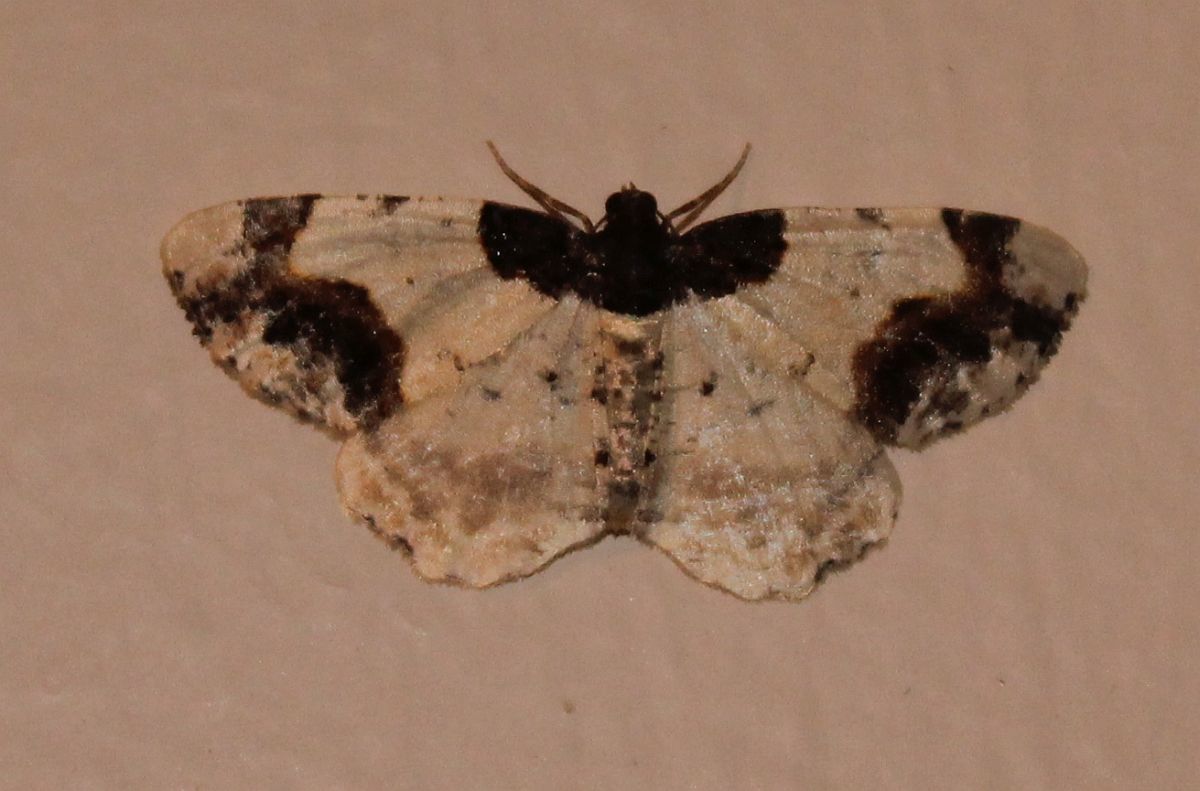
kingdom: Animalia
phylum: Arthropoda
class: Insecta
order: Lepidoptera
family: Geometridae
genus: Ligdia
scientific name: Ligdia adustata
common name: Scorched carpet
